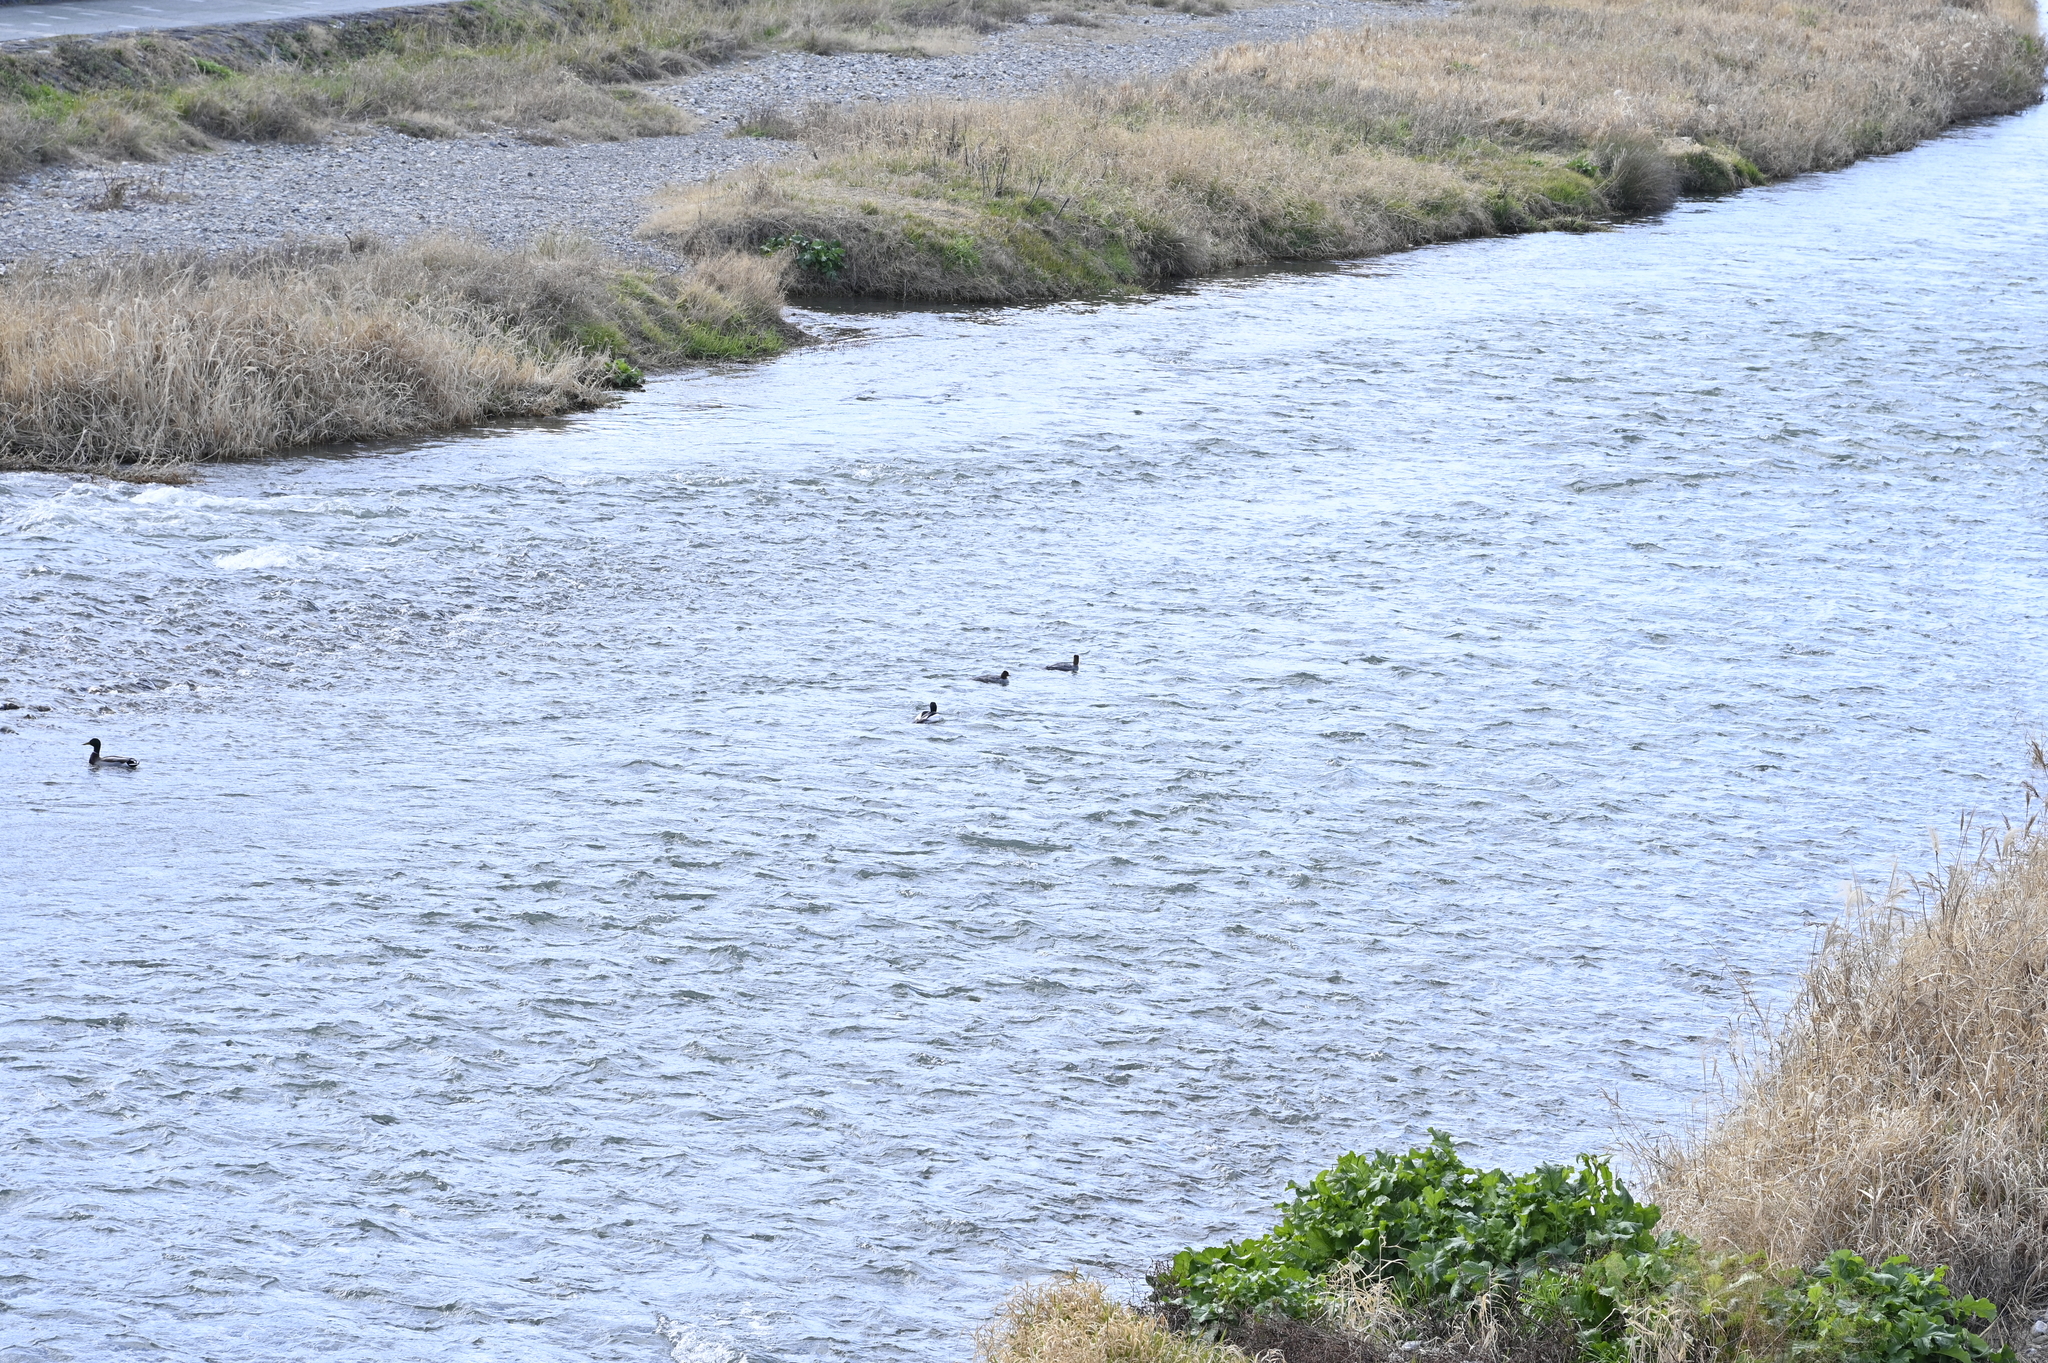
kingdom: Animalia
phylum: Chordata
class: Aves
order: Anseriformes
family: Anatidae
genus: Mergus
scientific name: Mergus merganser
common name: Common merganser
